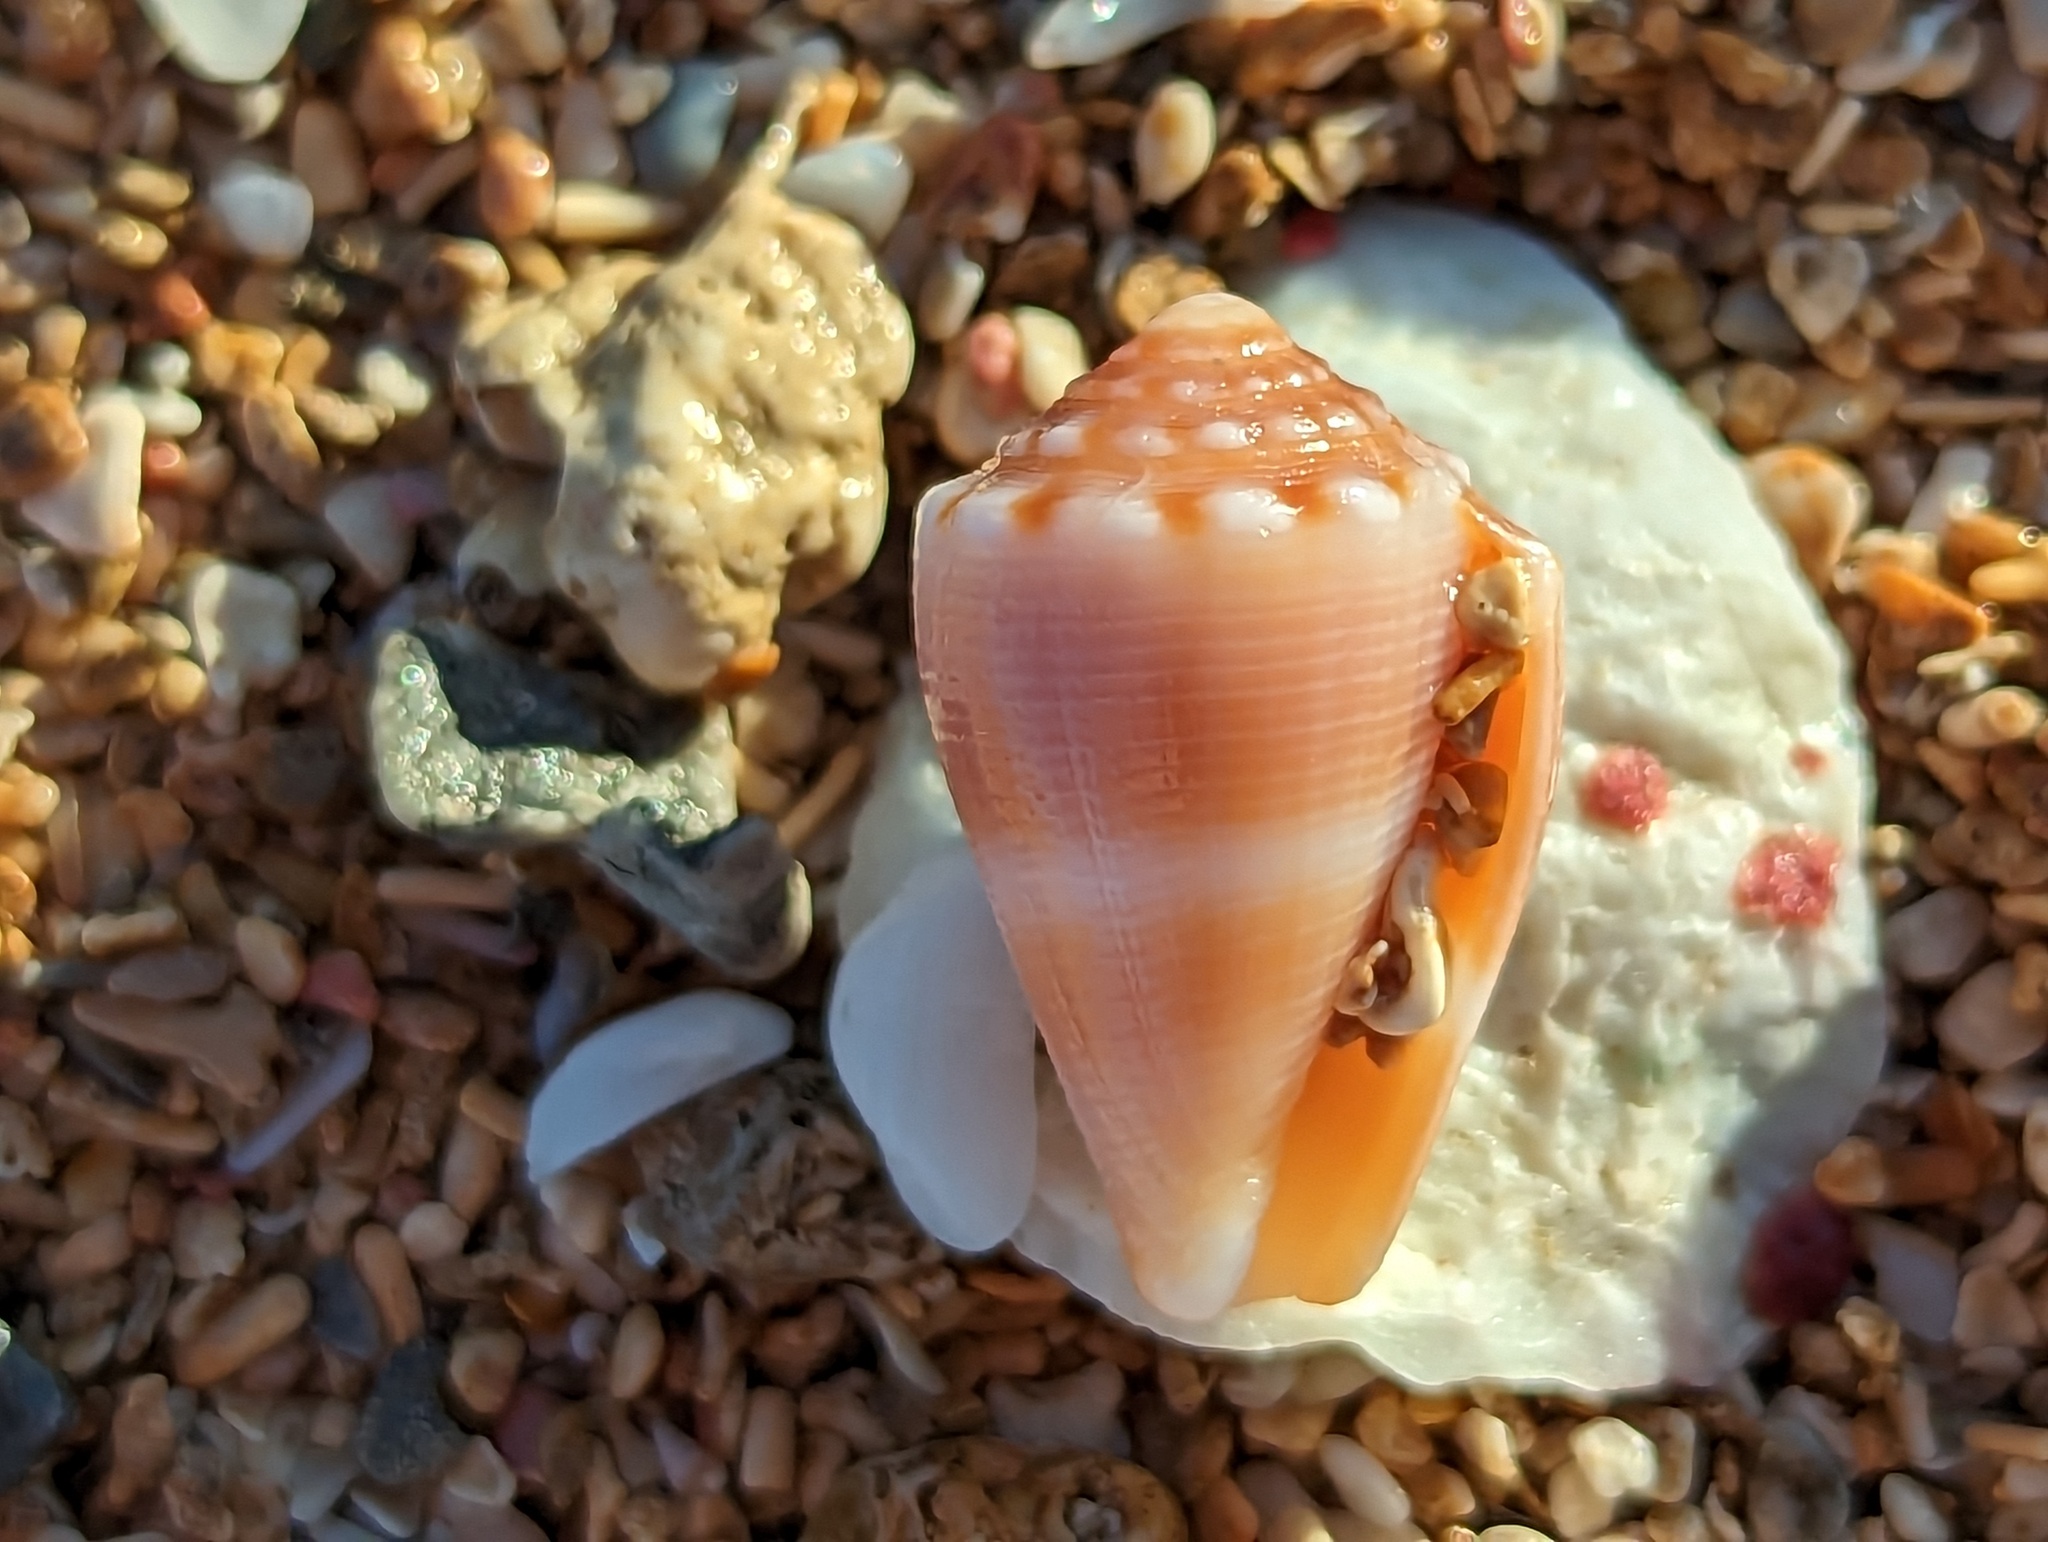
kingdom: Animalia
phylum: Mollusca
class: Gastropoda
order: Neogastropoda
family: Conidae
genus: Conus
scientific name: Conus mus
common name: Mouse cone
